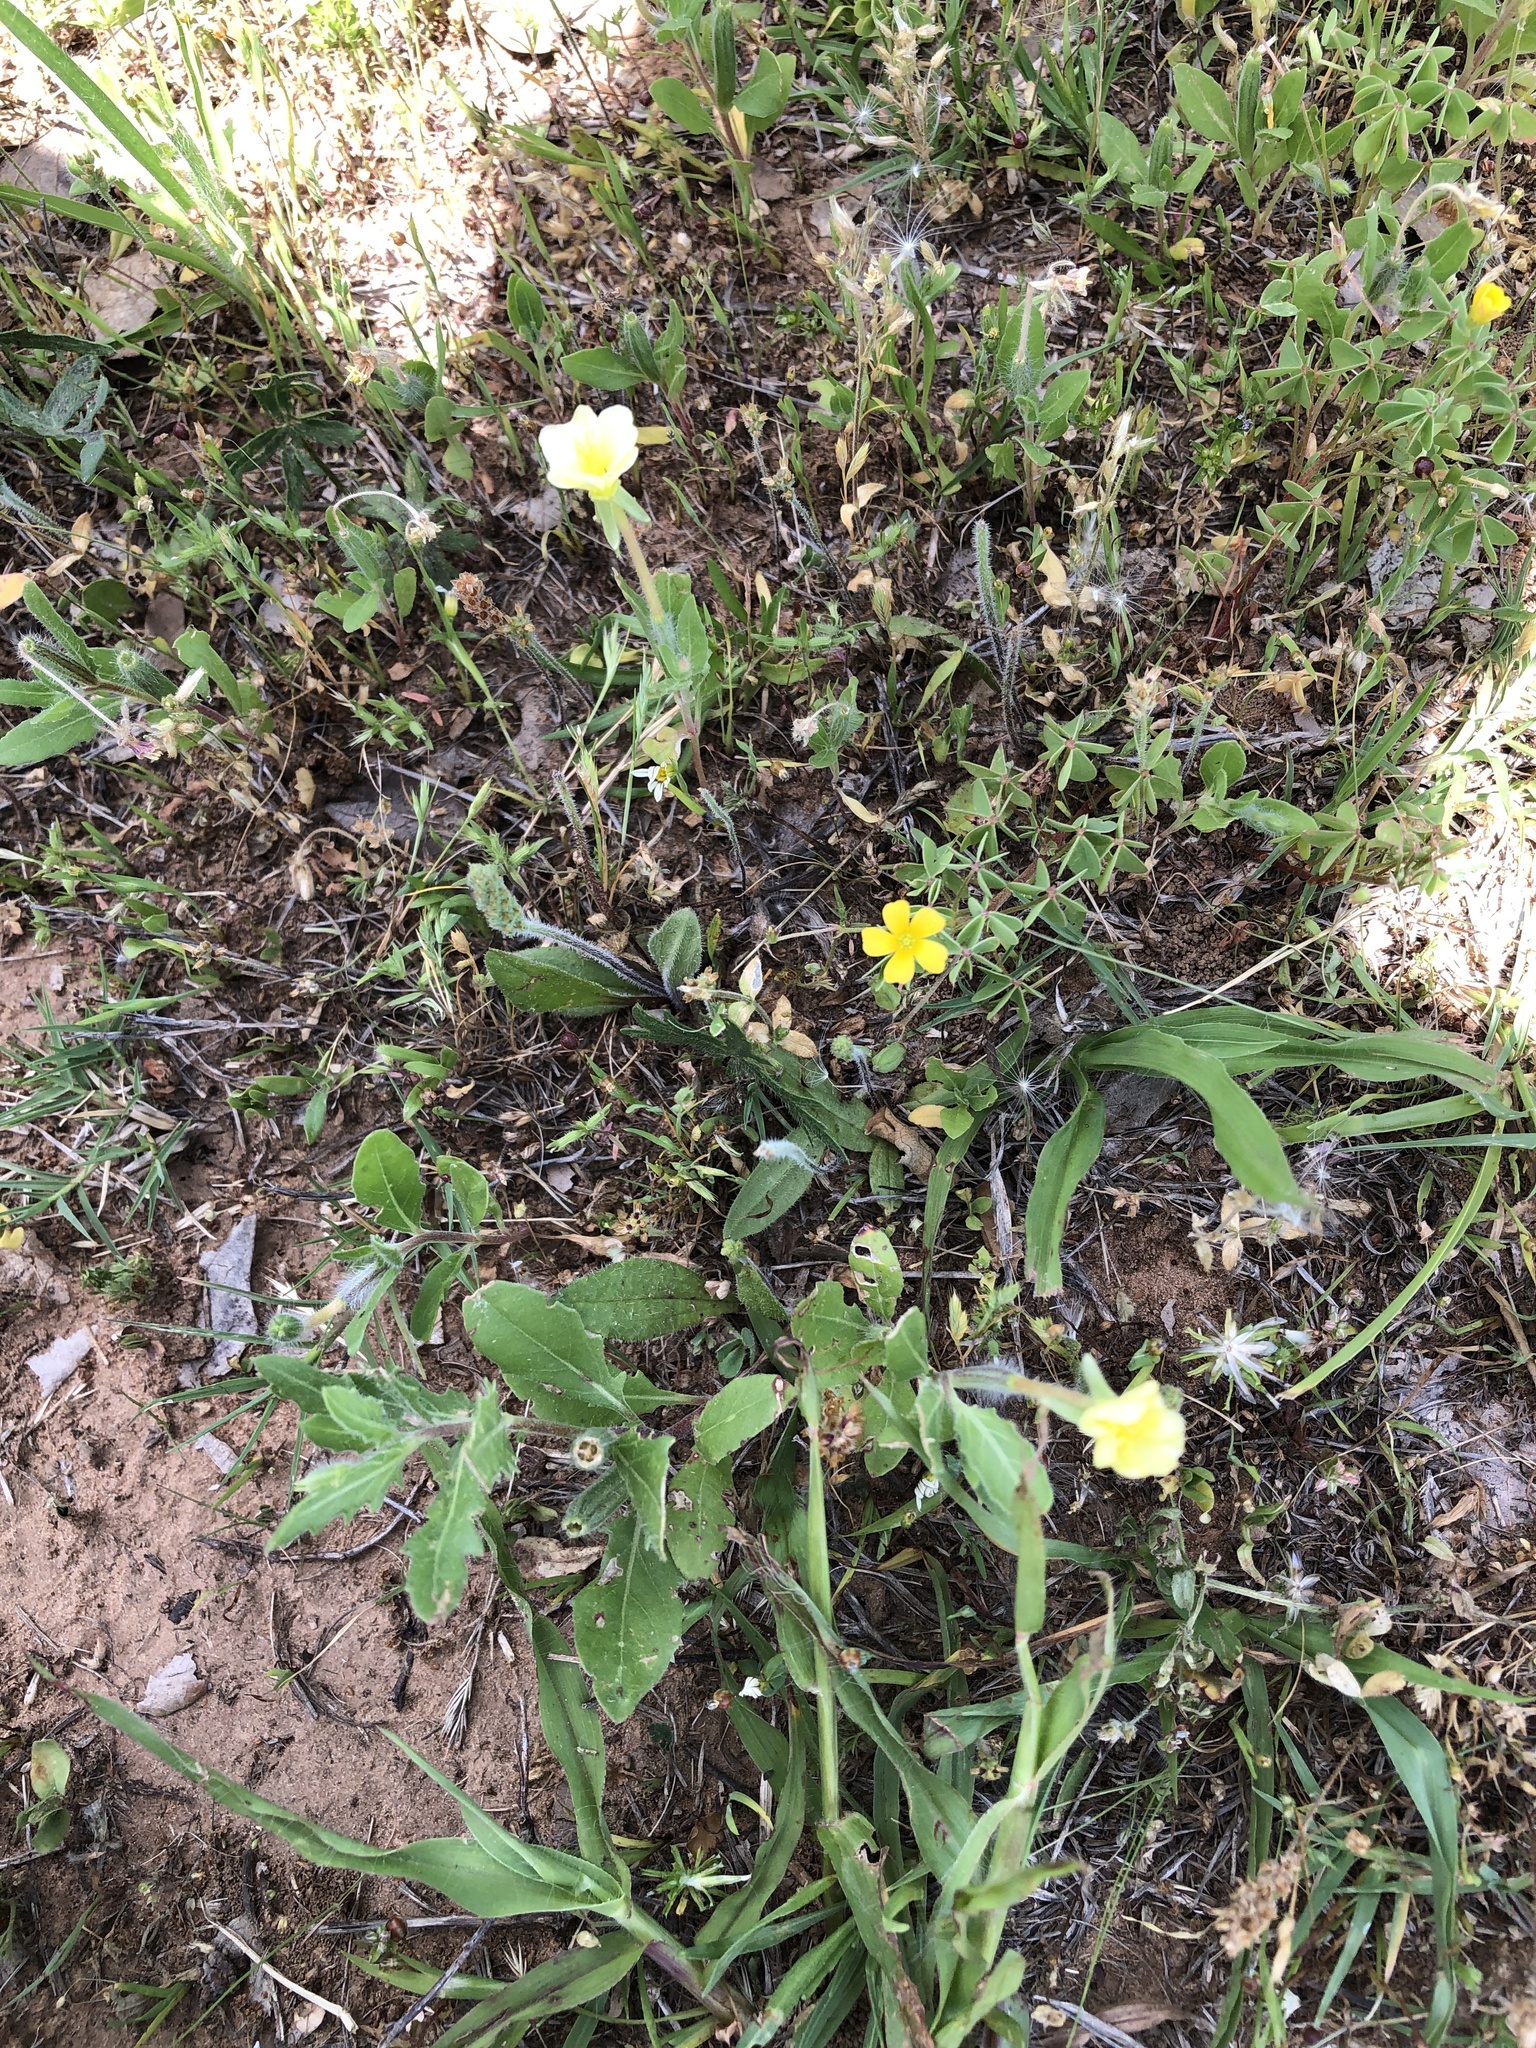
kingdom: Plantae
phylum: Tracheophyta
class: Magnoliopsida
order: Myrtales
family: Onagraceae
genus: Oenothera
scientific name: Oenothera laciniata
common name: Cut-leaved evening-primrose
